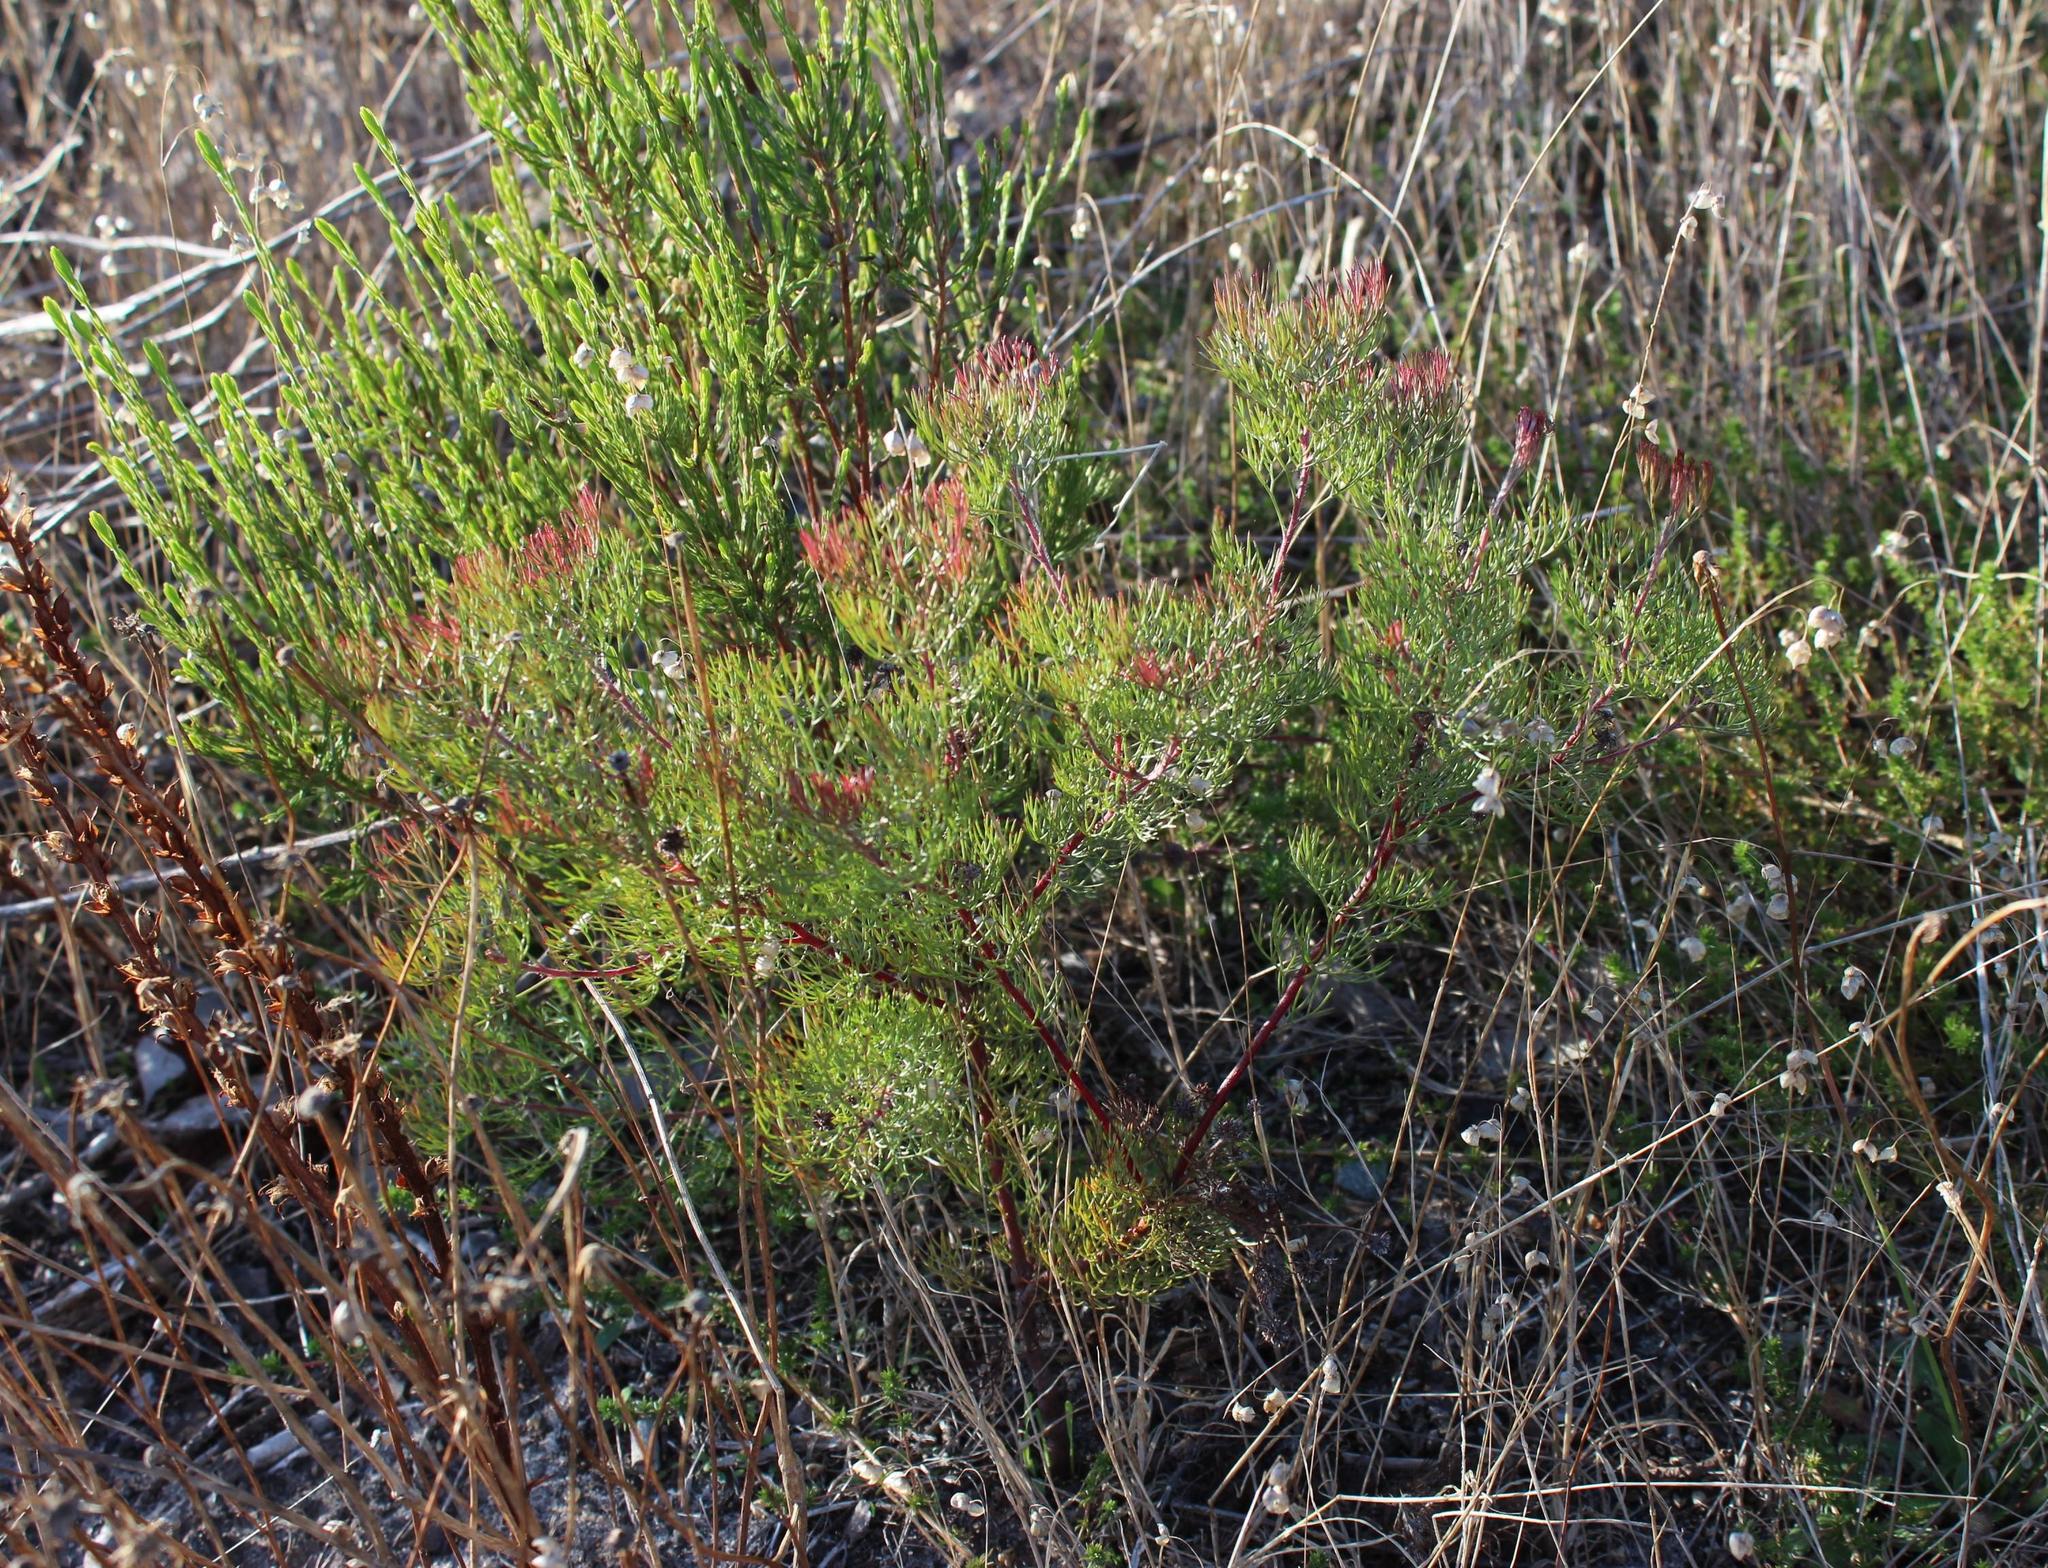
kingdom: Plantae
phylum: Tracheophyta
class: Magnoliopsida
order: Proteales
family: Proteaceae
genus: Serruria
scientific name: Serruria fasciflora
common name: Common pin spiderhead
